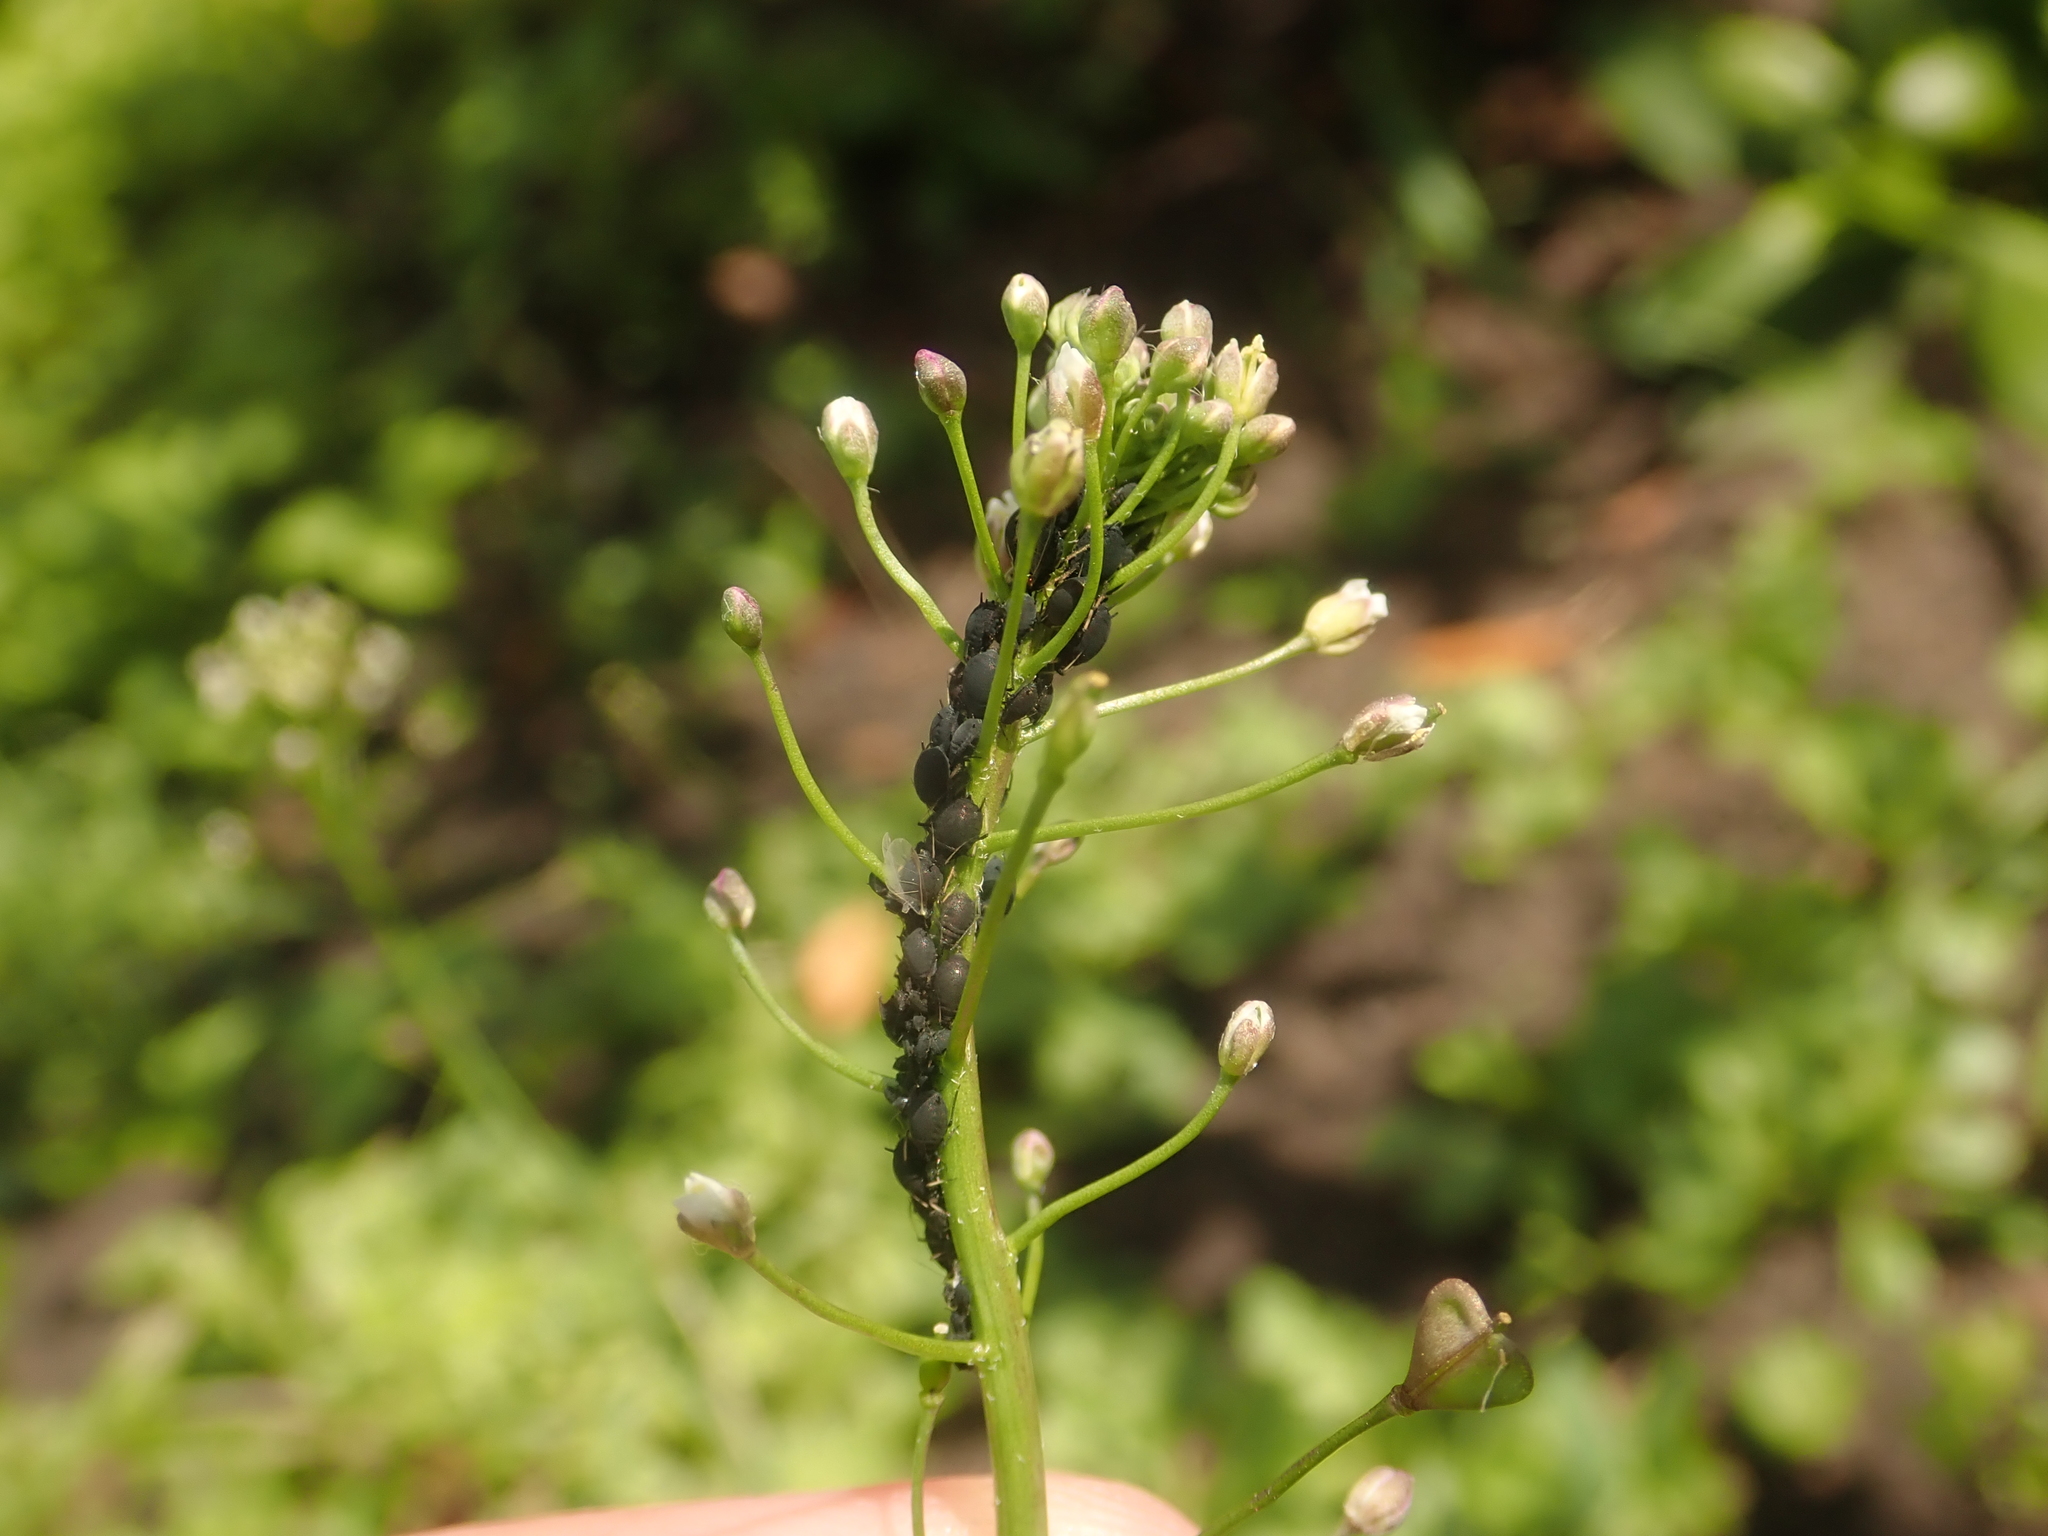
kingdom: Animalia
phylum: Arthropoda
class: Insecta
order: Hemiptera
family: Aphididae
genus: Aphis
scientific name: Aphis fabae
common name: Bean aphid
